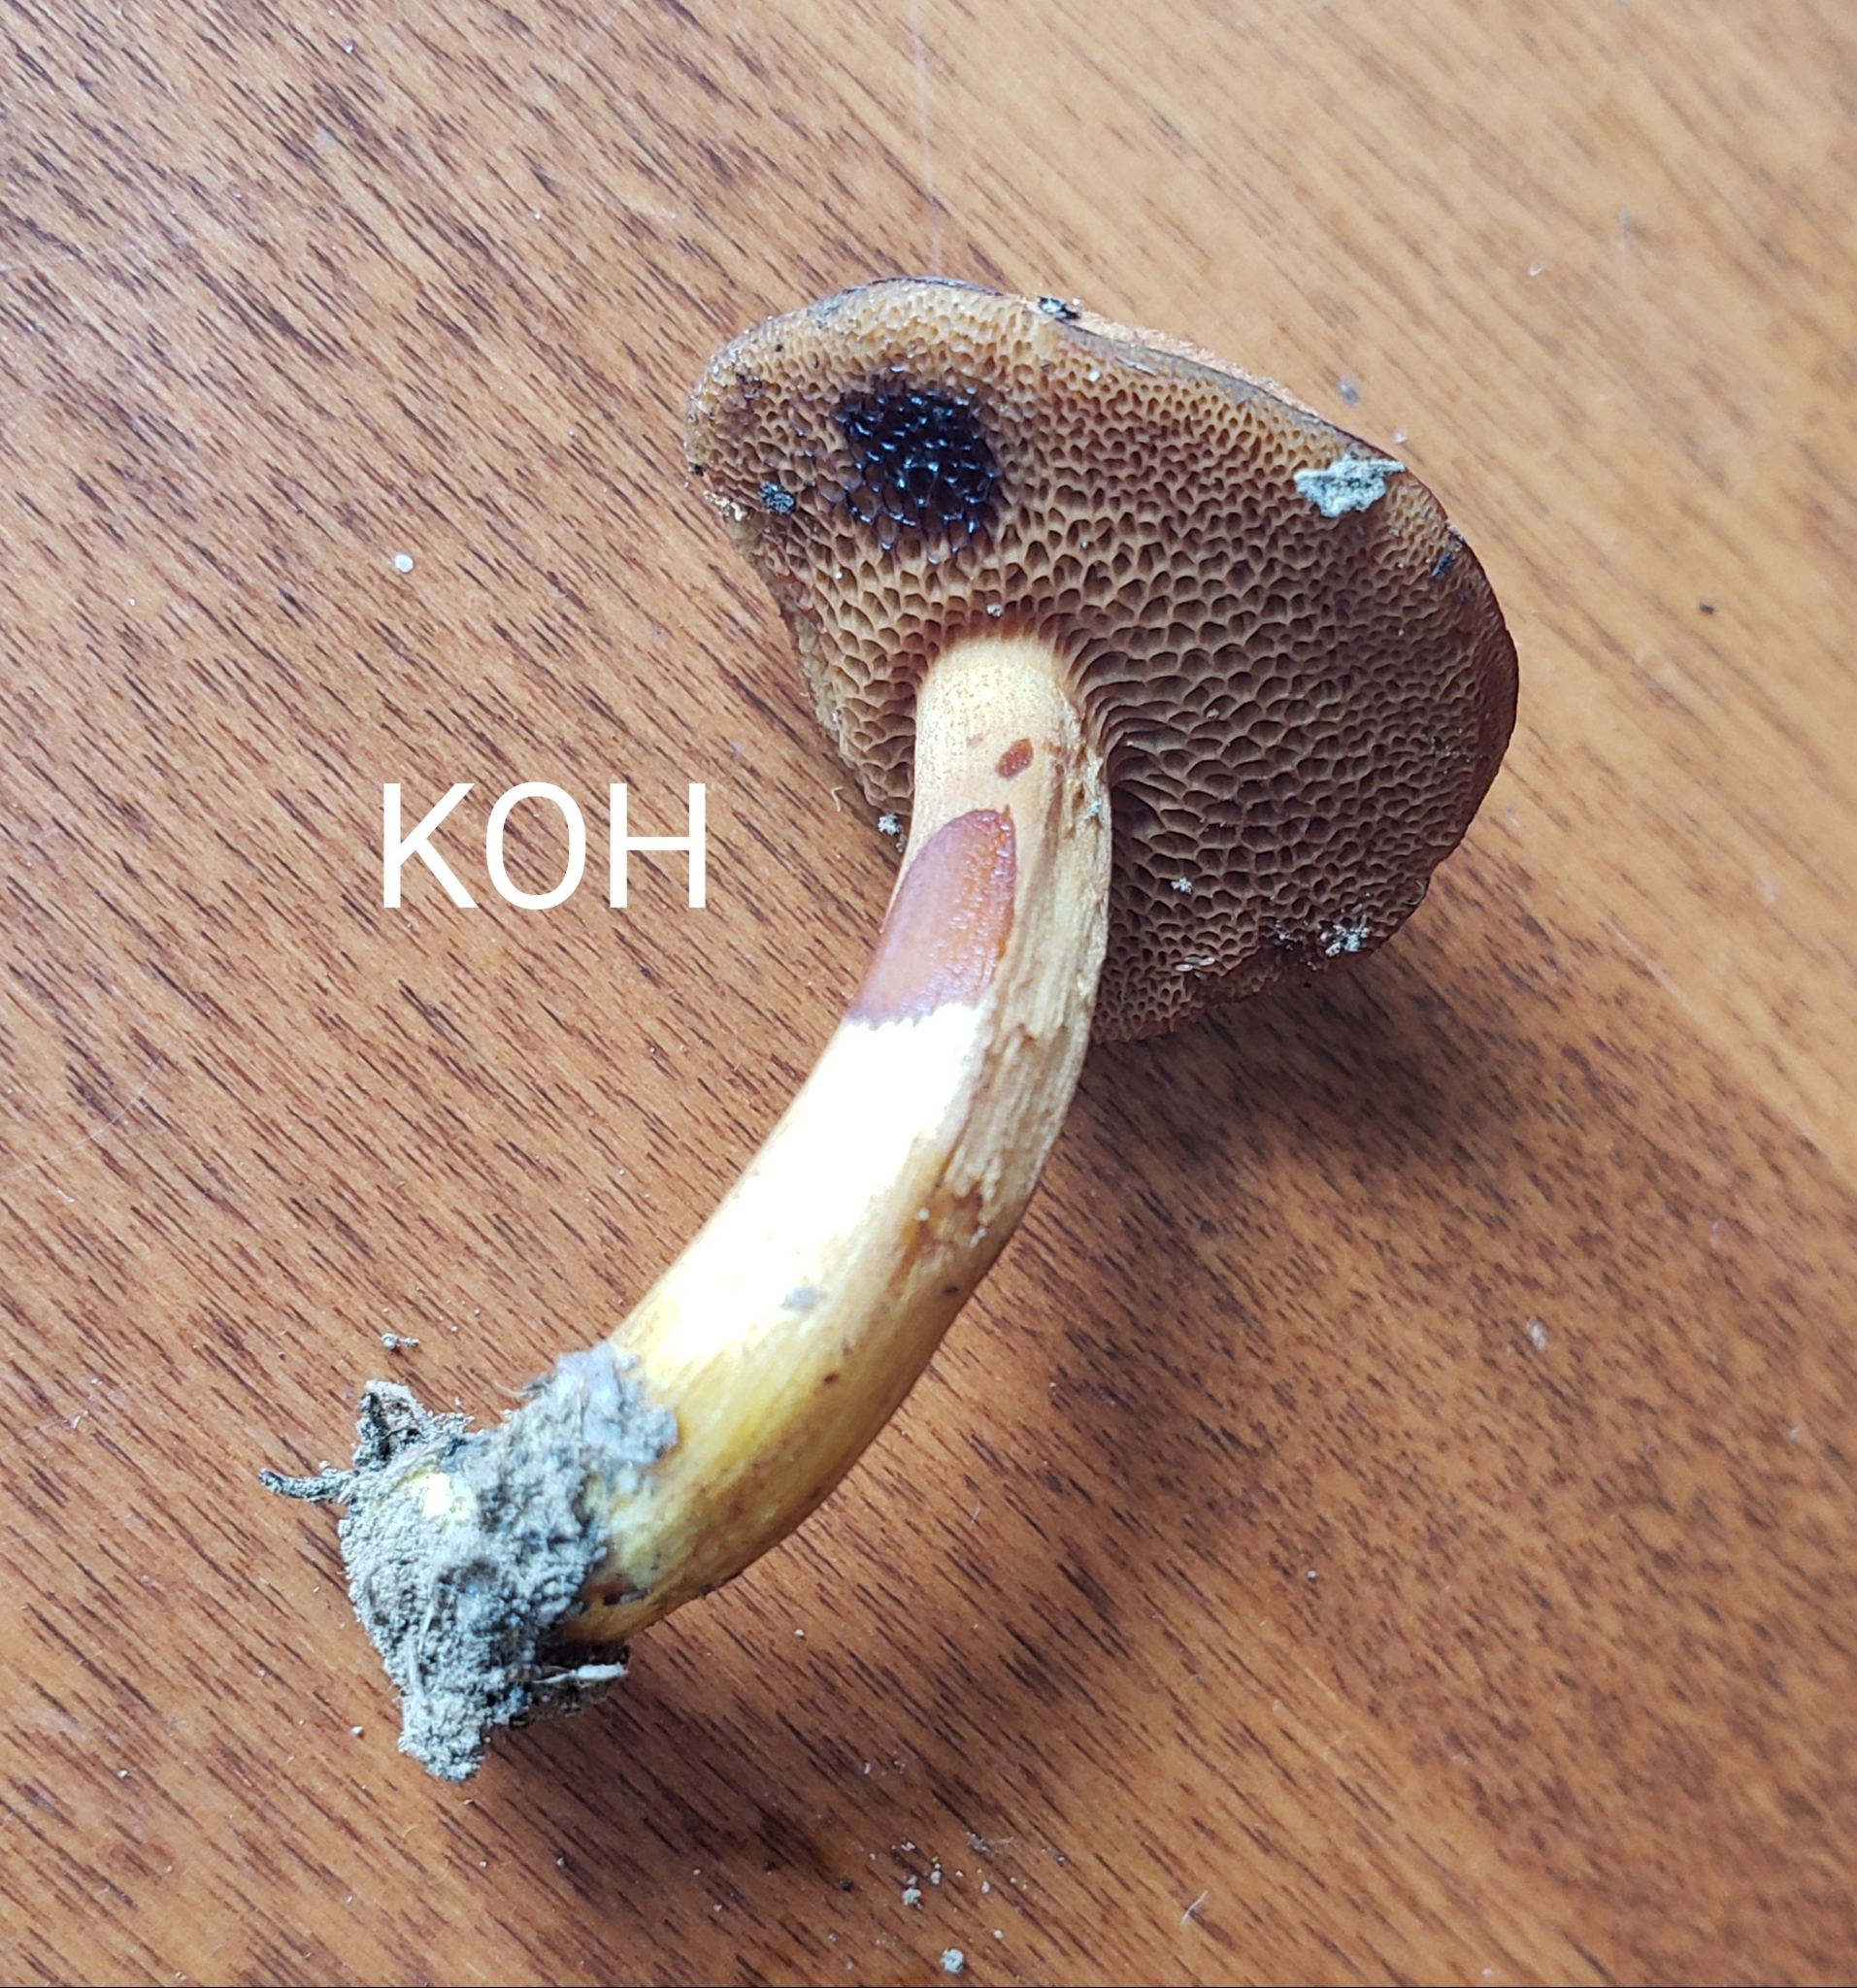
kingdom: Fungi
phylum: Basidiomycota
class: Agaricomycetes
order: Boletales
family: Boletaceae
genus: Chalciporus
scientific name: Chalciporus piperatus
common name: Peppery bolete
